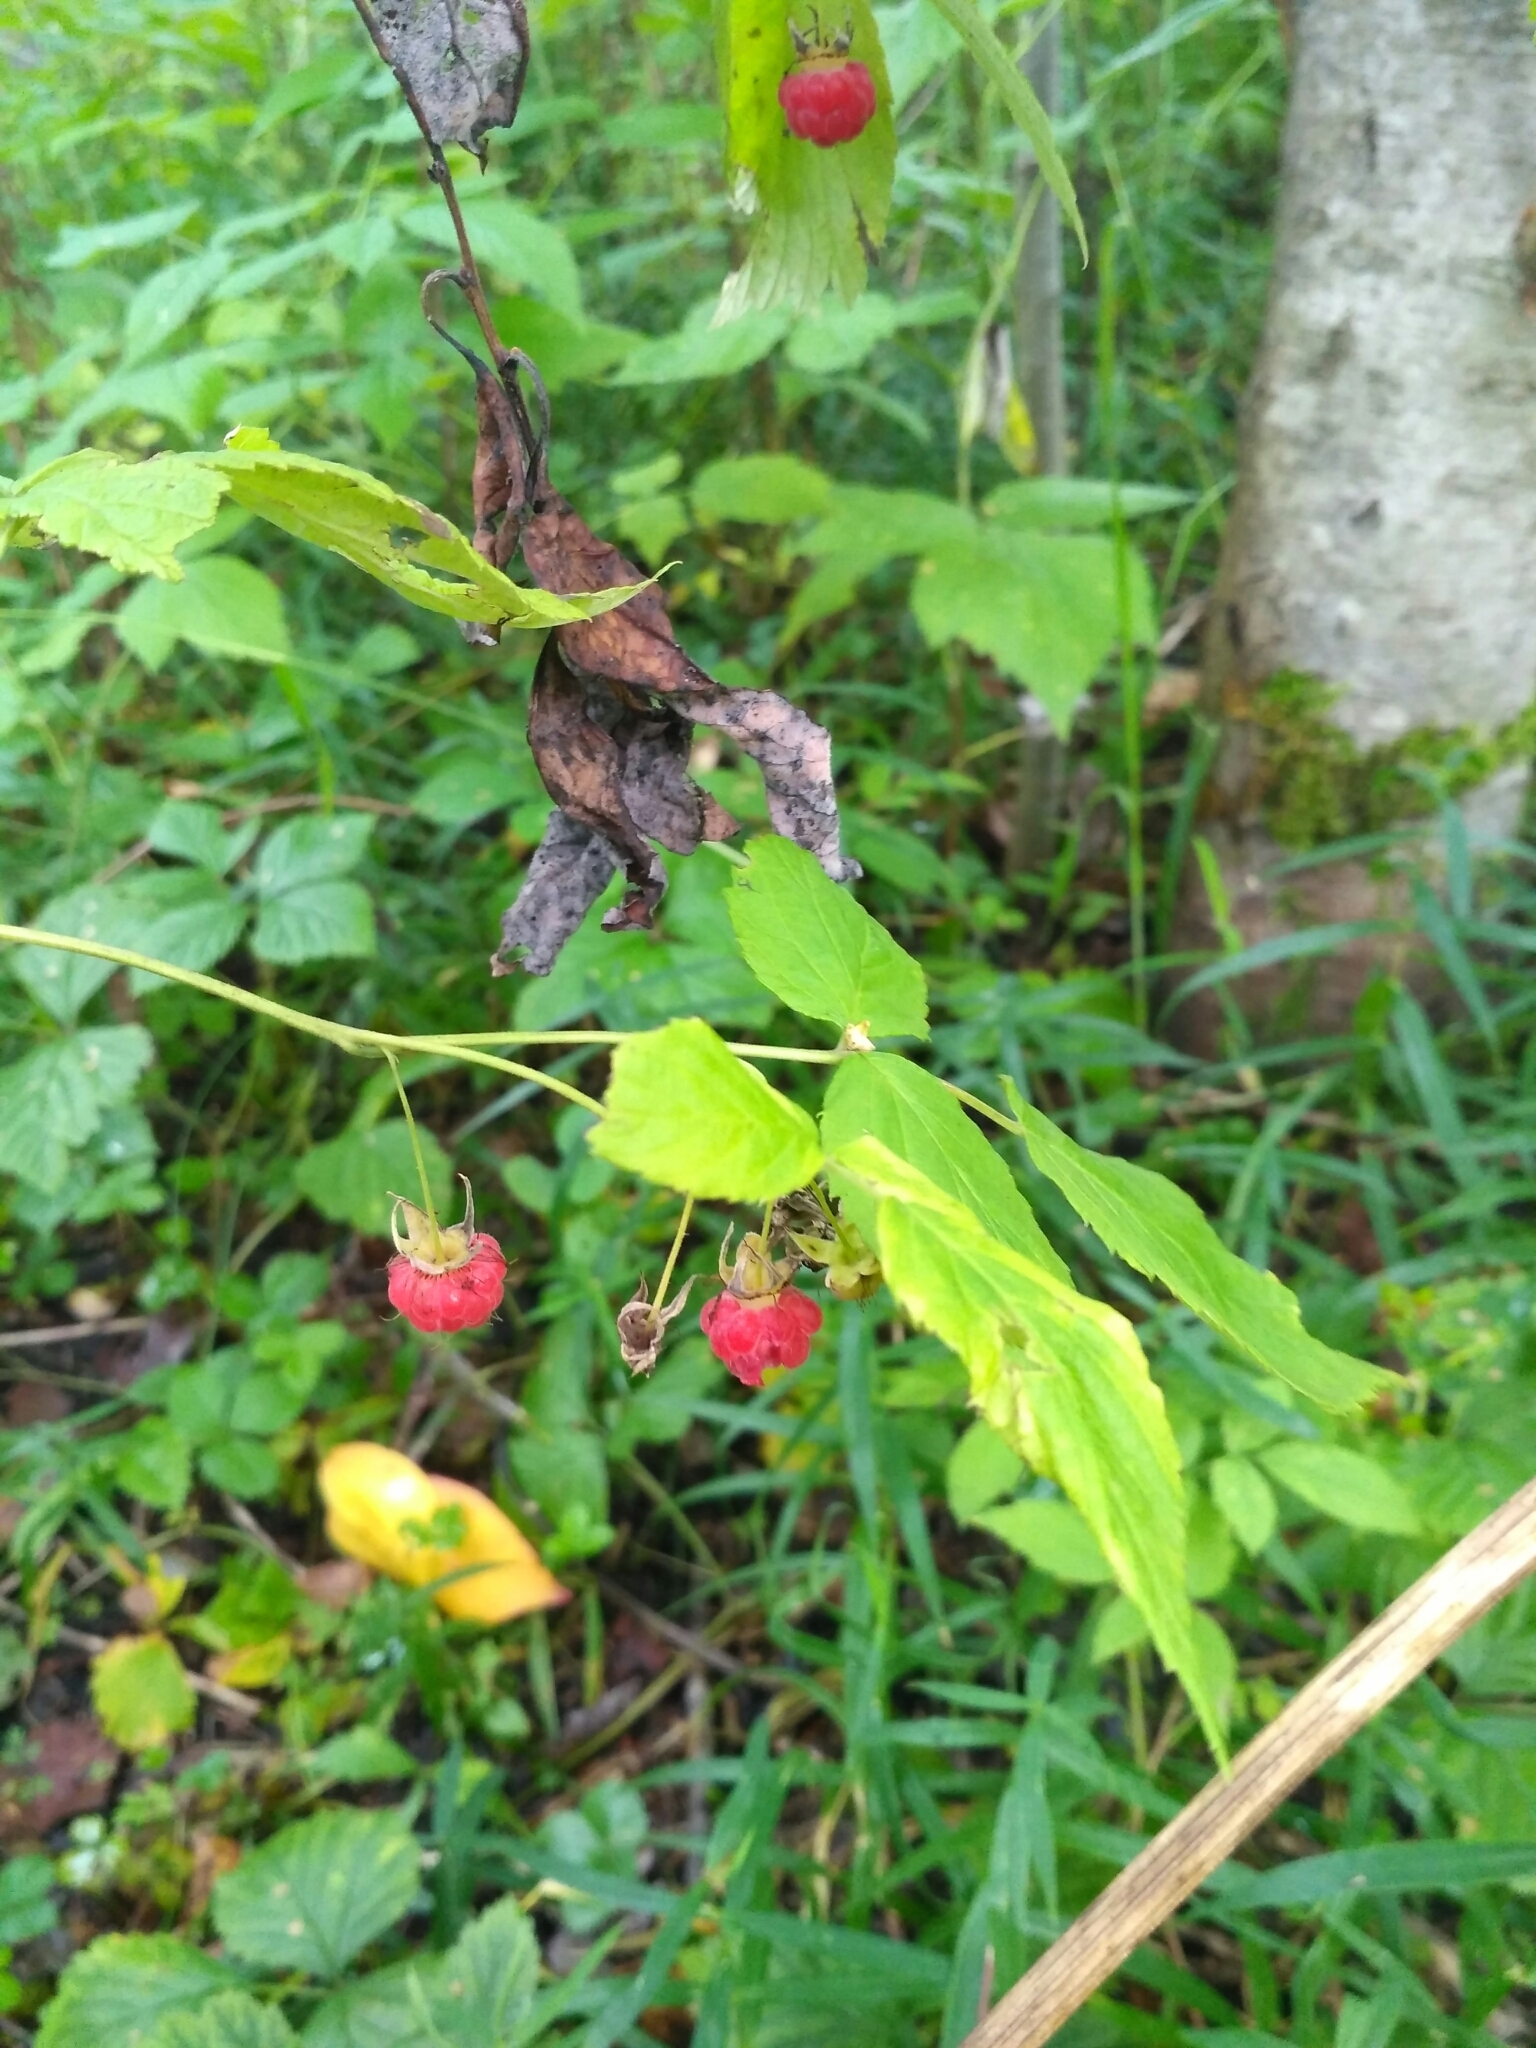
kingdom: Plantae
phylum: Tracheophyta
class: Magnoliopsida
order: Rosales
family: Rosaceae
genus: Rubus
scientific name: Rubus idaeus
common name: Raspberry
